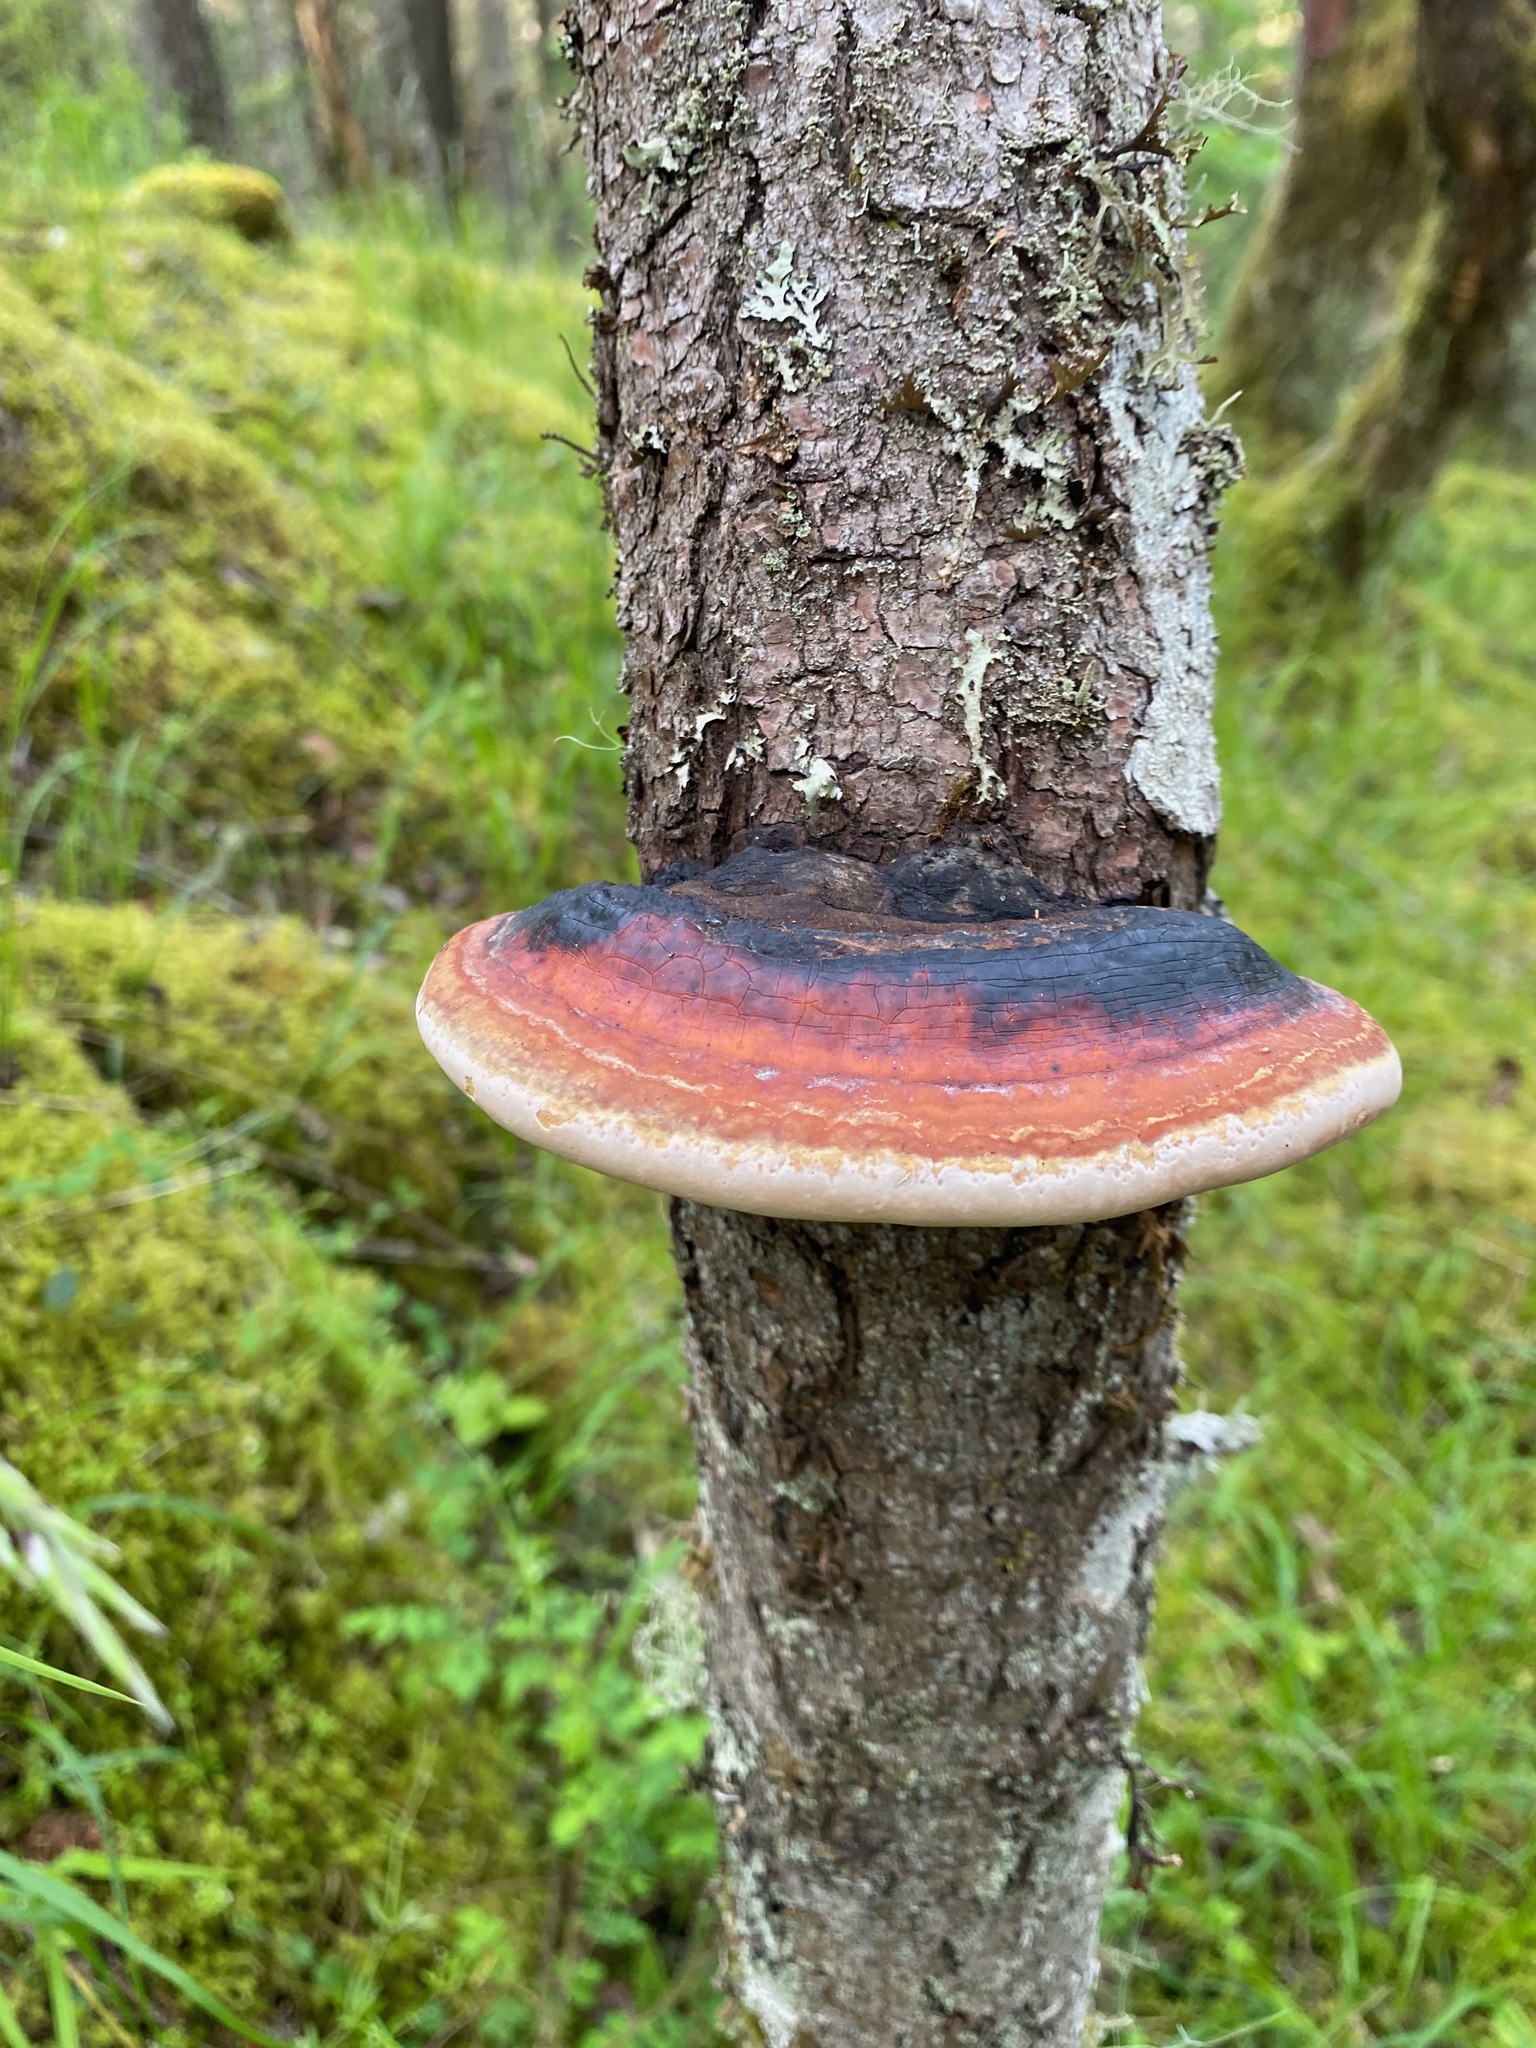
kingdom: Fungi
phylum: Basidiomycota
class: Agaricomycetes
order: Polyporales
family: Fomitopsidaceae
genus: Fomitopsis
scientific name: Fomitopsis mounceae
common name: Northern red belt
